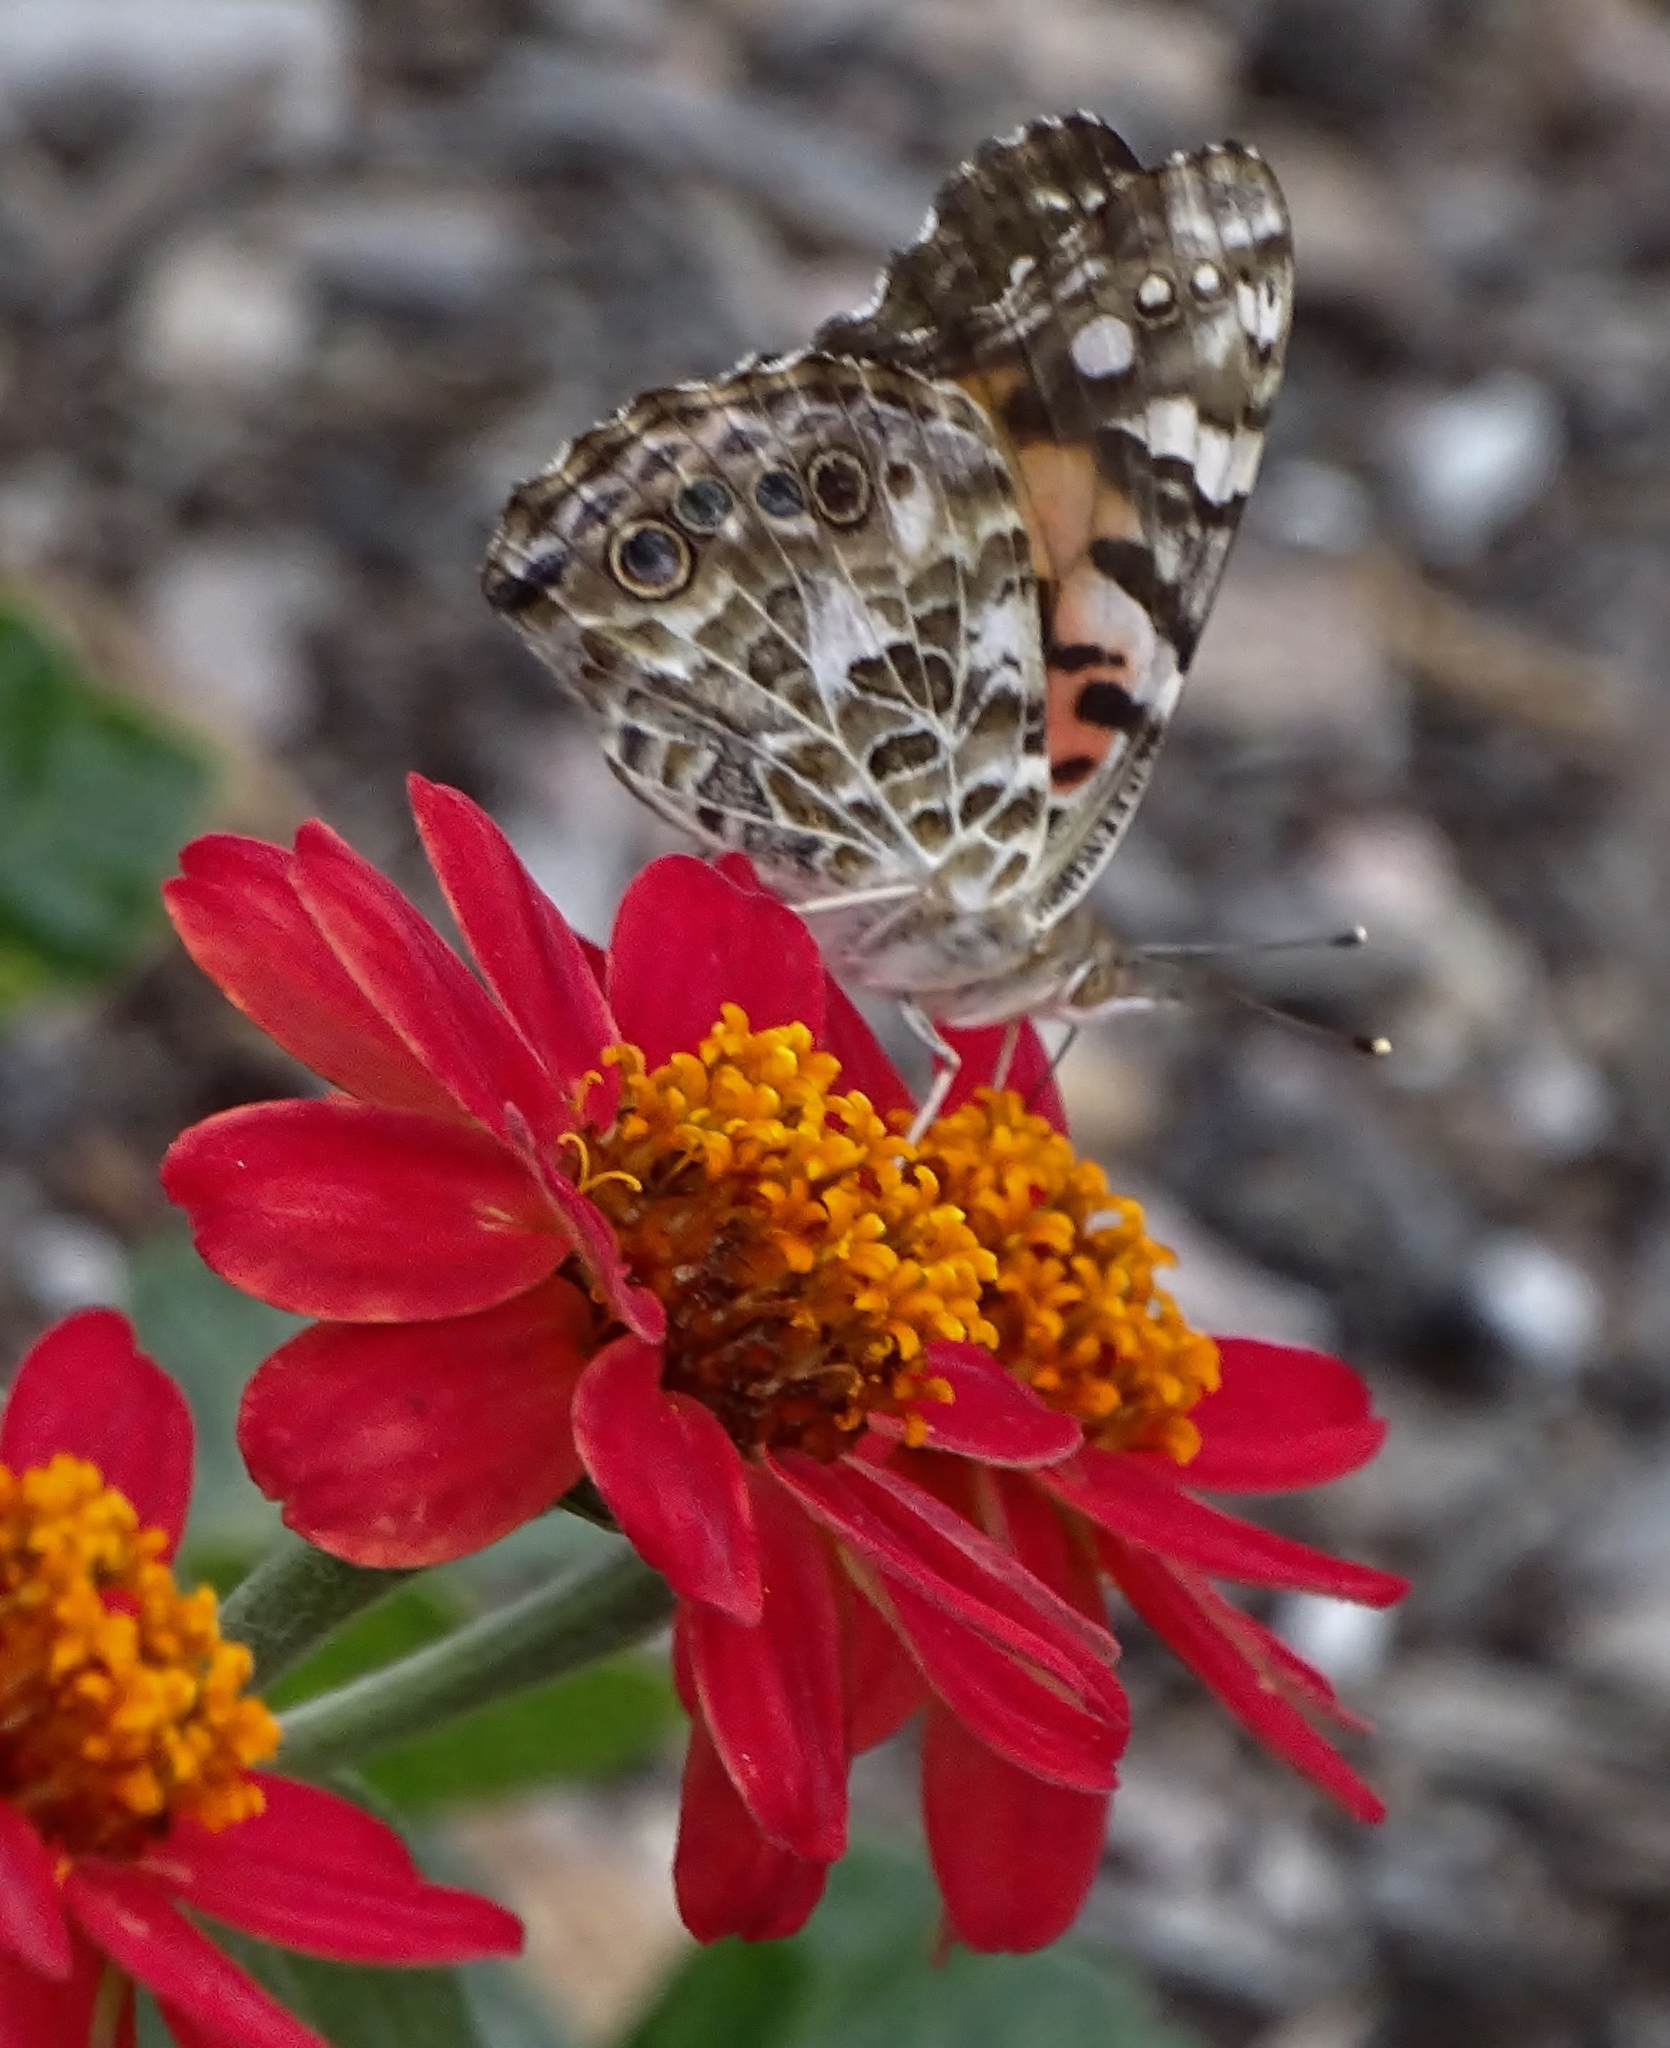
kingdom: Animalia
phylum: Arthropoda
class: Insecta
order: Lepidoptera
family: Nymphalidae
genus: Vanessa
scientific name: Vanessa cardui
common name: Painted lady
